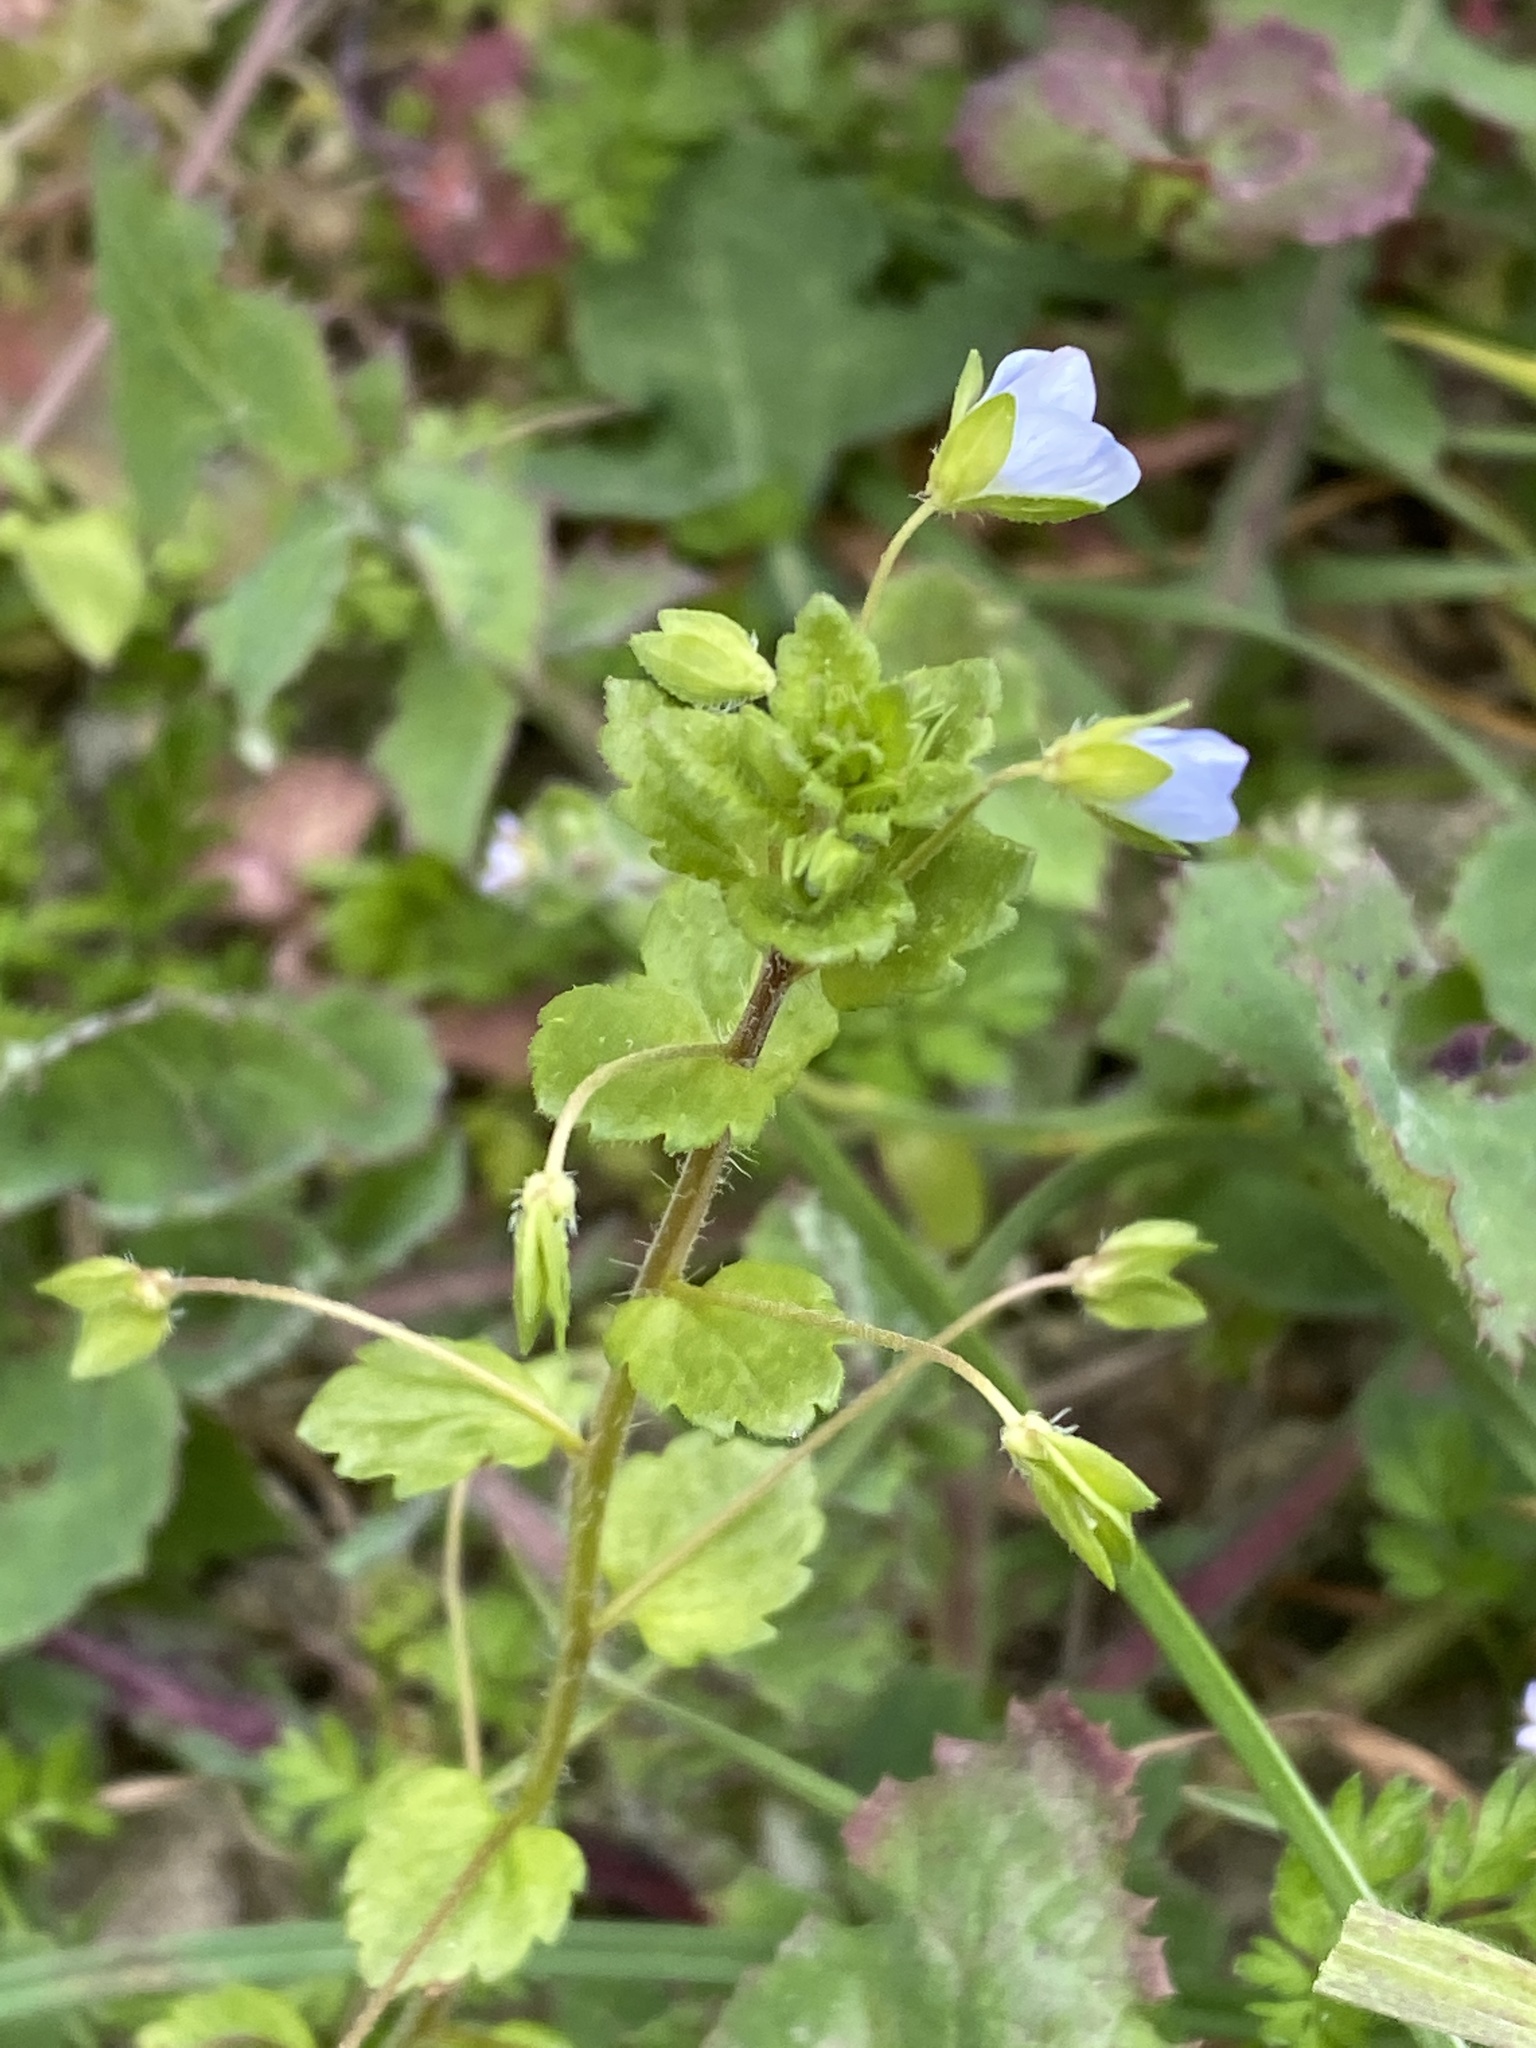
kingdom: Plantae
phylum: Tracheophyta
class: Magnoliopsida
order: Lamiales
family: Plantaginaceae
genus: Veronica
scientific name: Veronica persica
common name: Common field-speedwell
